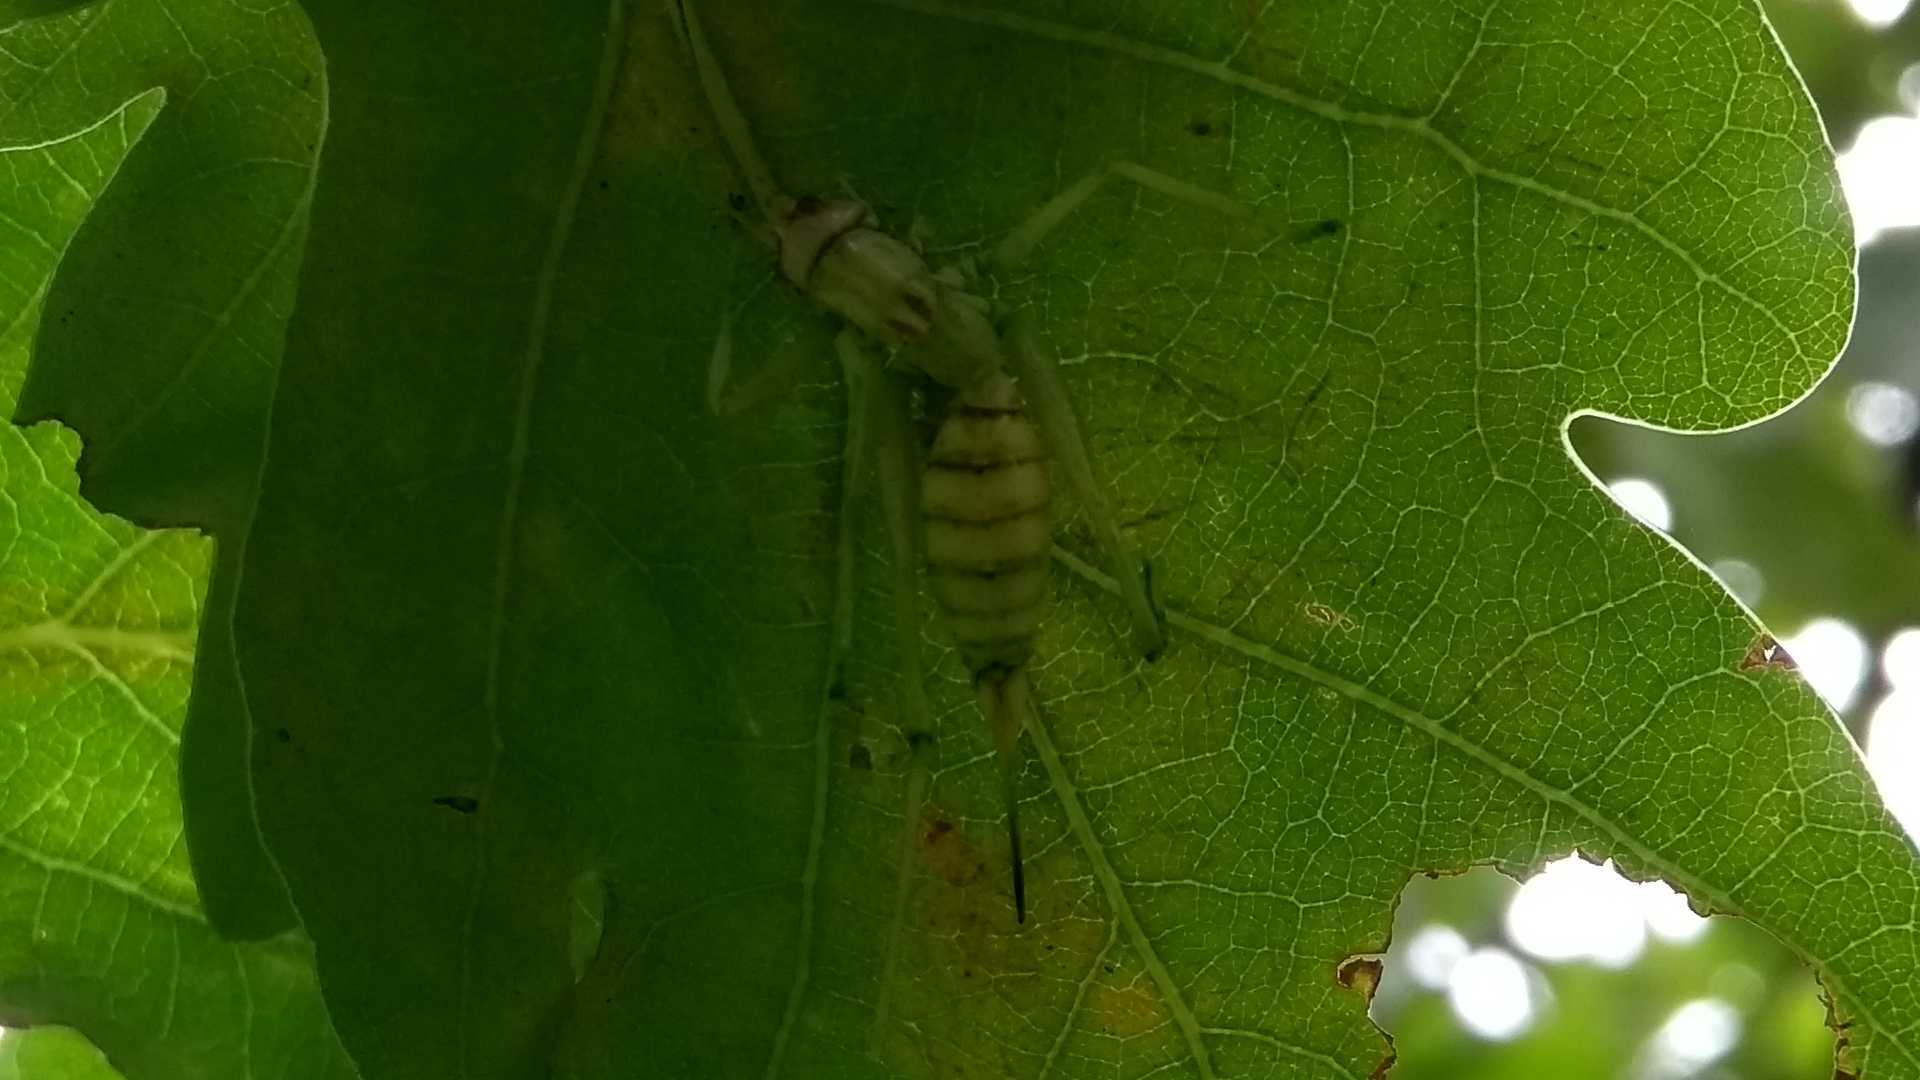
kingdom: Animalia
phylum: Arthropoda
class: Insecta
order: Orthoptera
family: Tettigoniidae
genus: Meconema
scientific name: Meconema meridionale
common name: Southern oak bush-cricket
